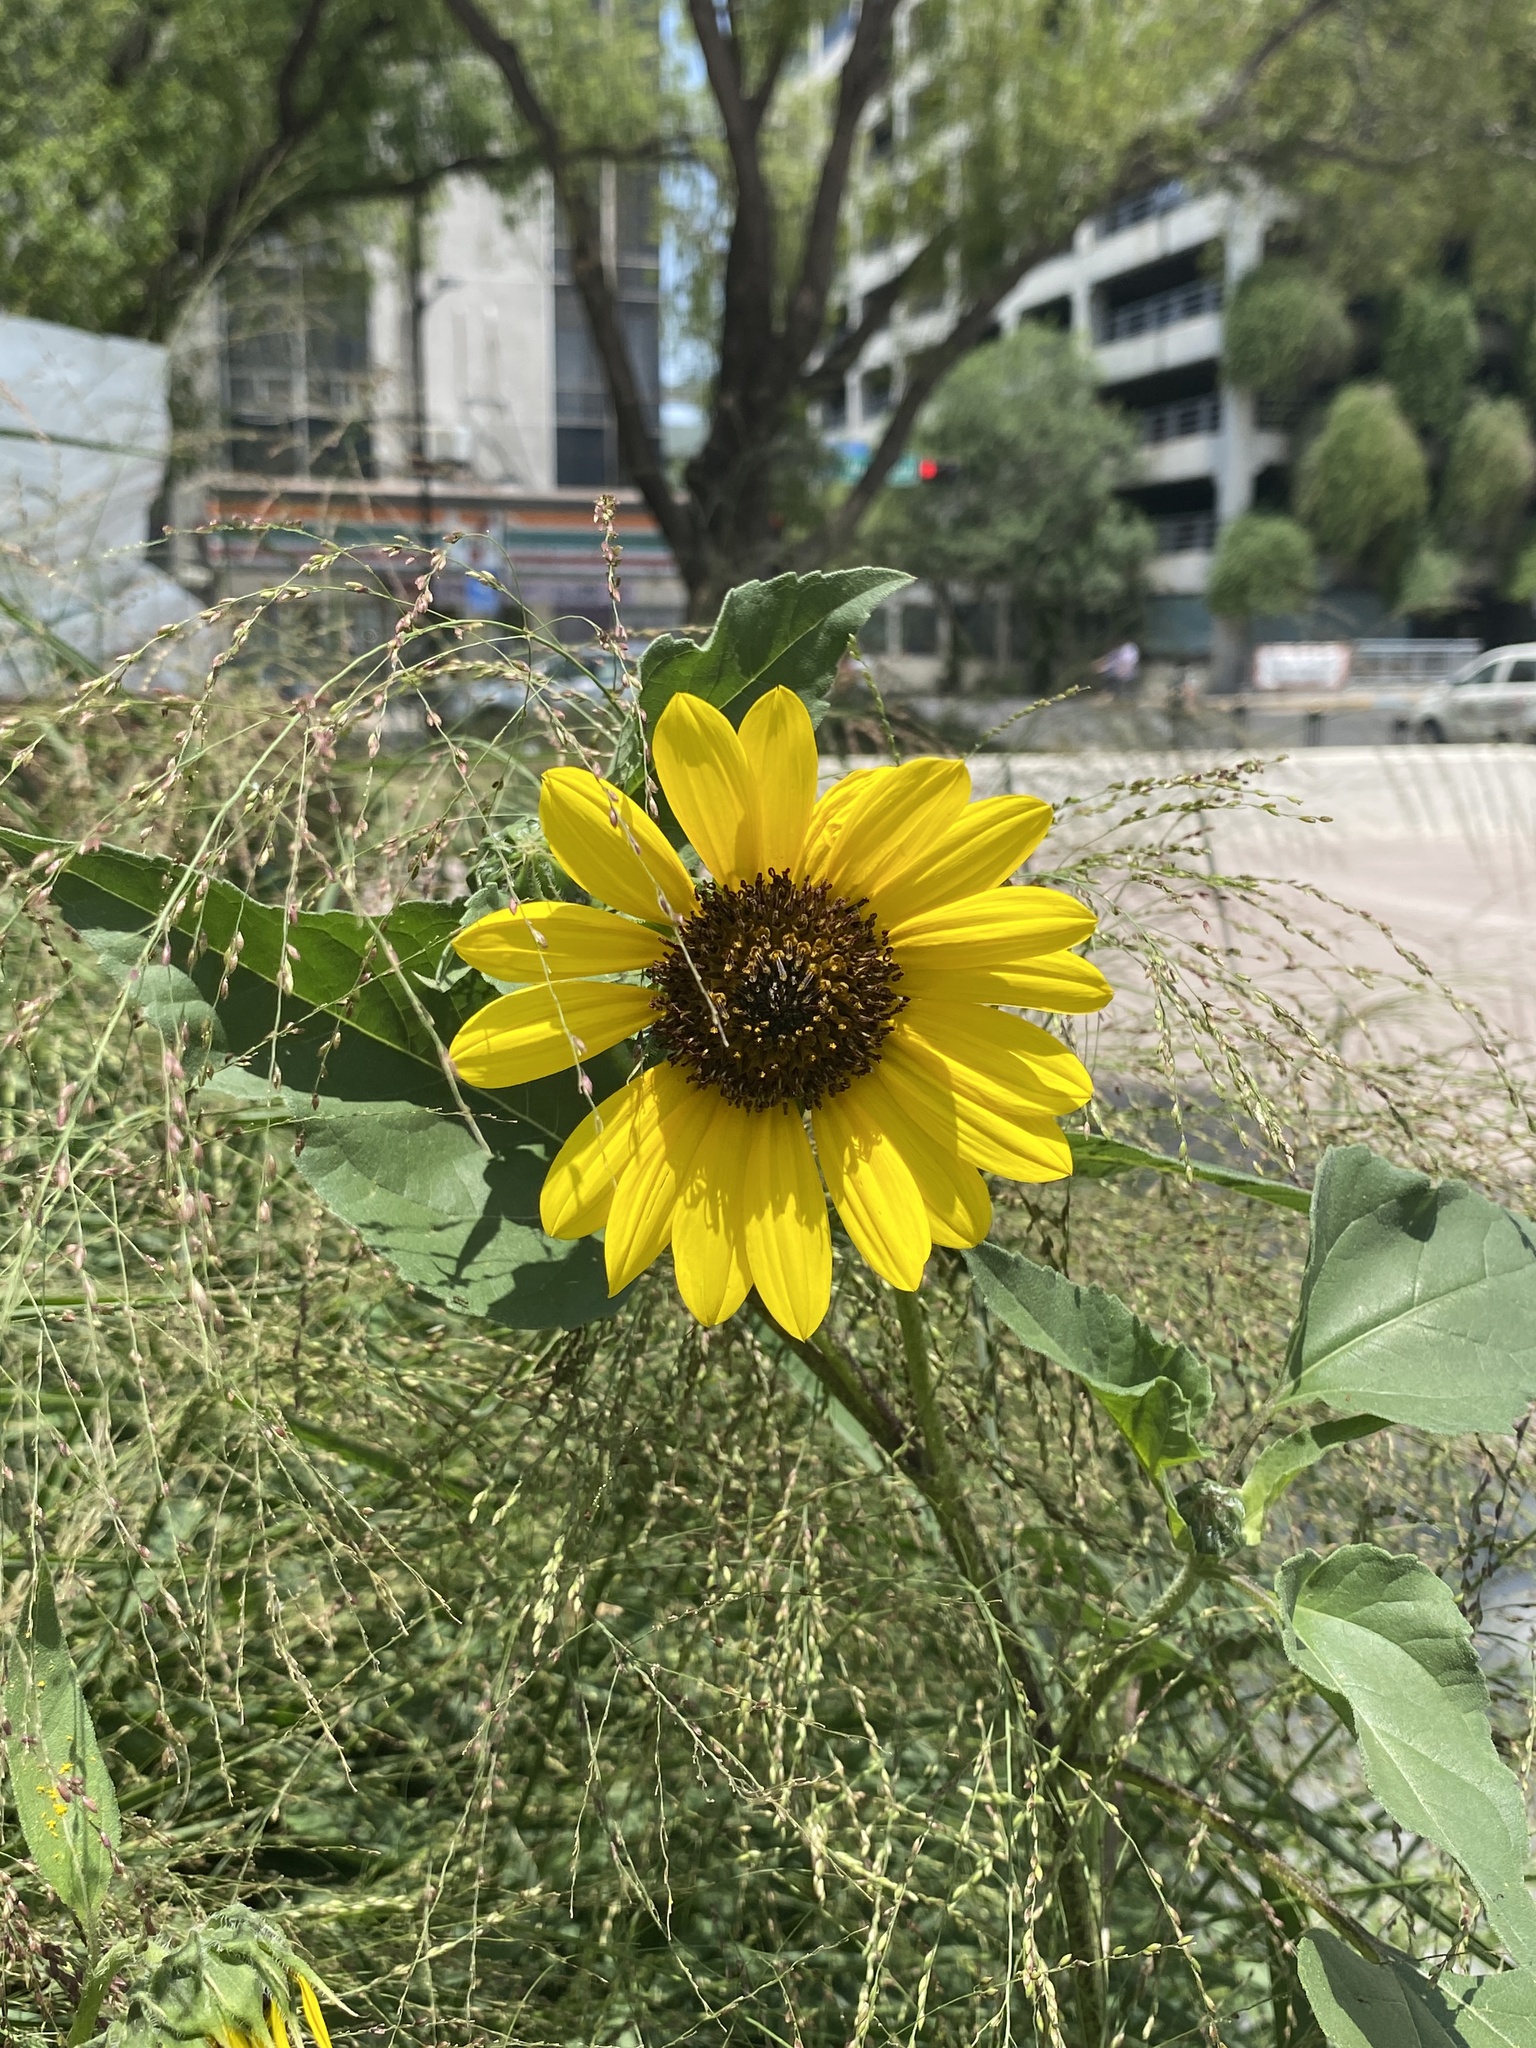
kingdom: Plantae
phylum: Tracheophyta
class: Magnoliopsida
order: Asterales
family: Asteraceae
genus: Helianthus
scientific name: Helianthus annuus
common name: Sunflower
